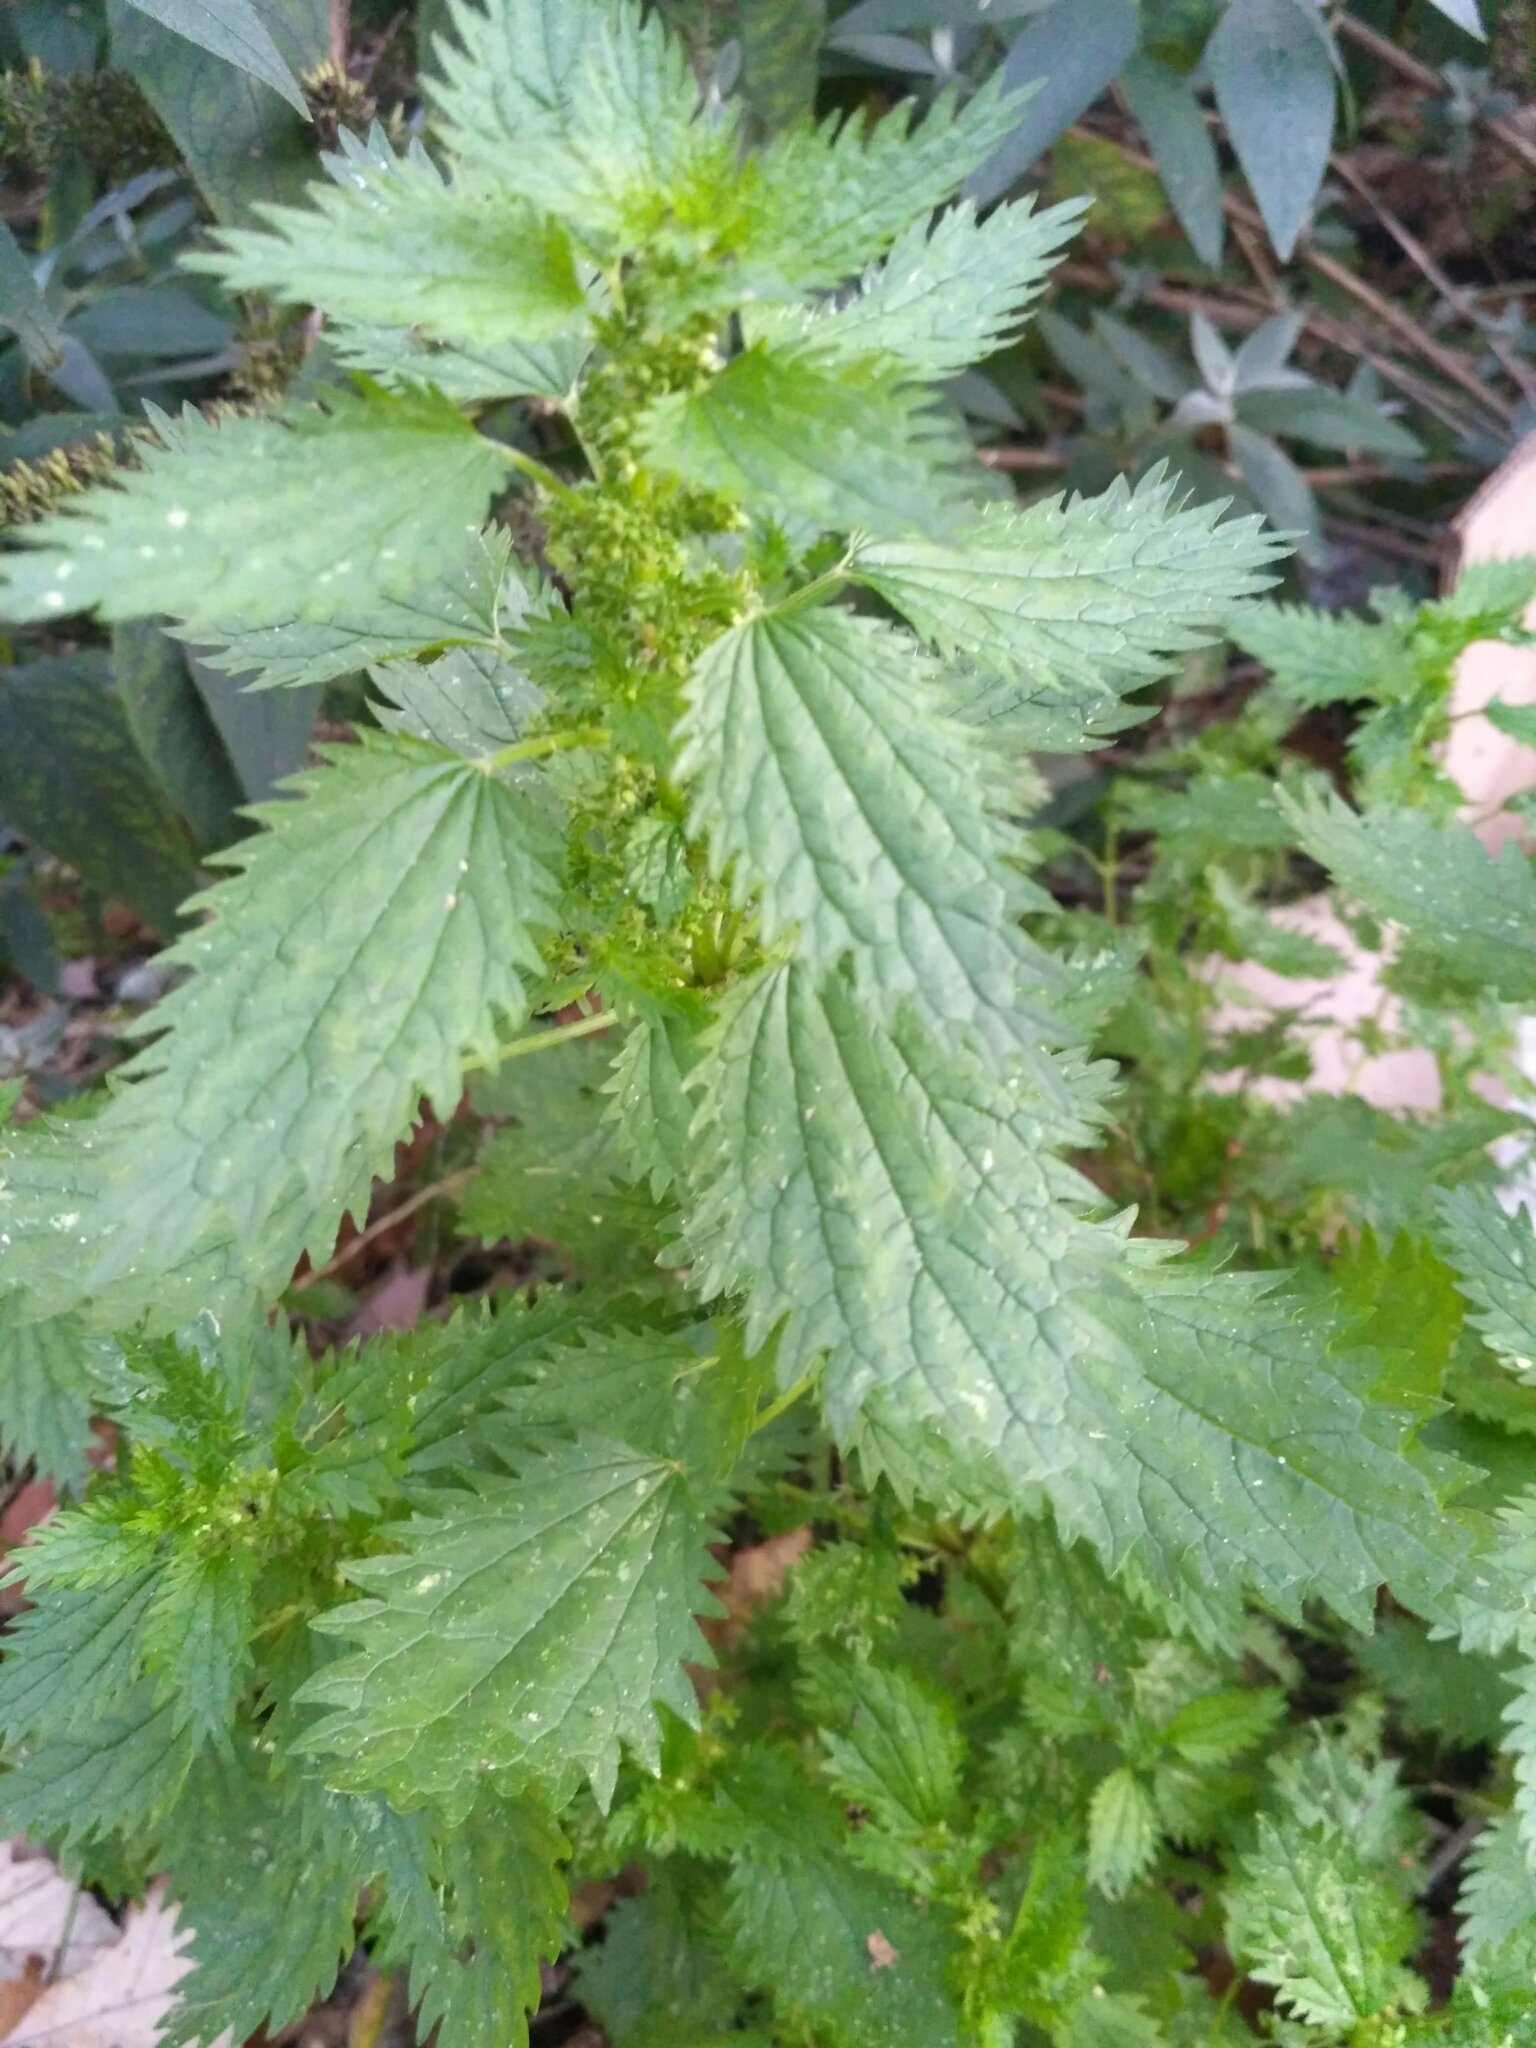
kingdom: Plantae
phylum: Tracheophyta
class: Magnoliopsida
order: Rosales
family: Urticaceae
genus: Urtica
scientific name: Urtica urens
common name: Dwarf nettle
